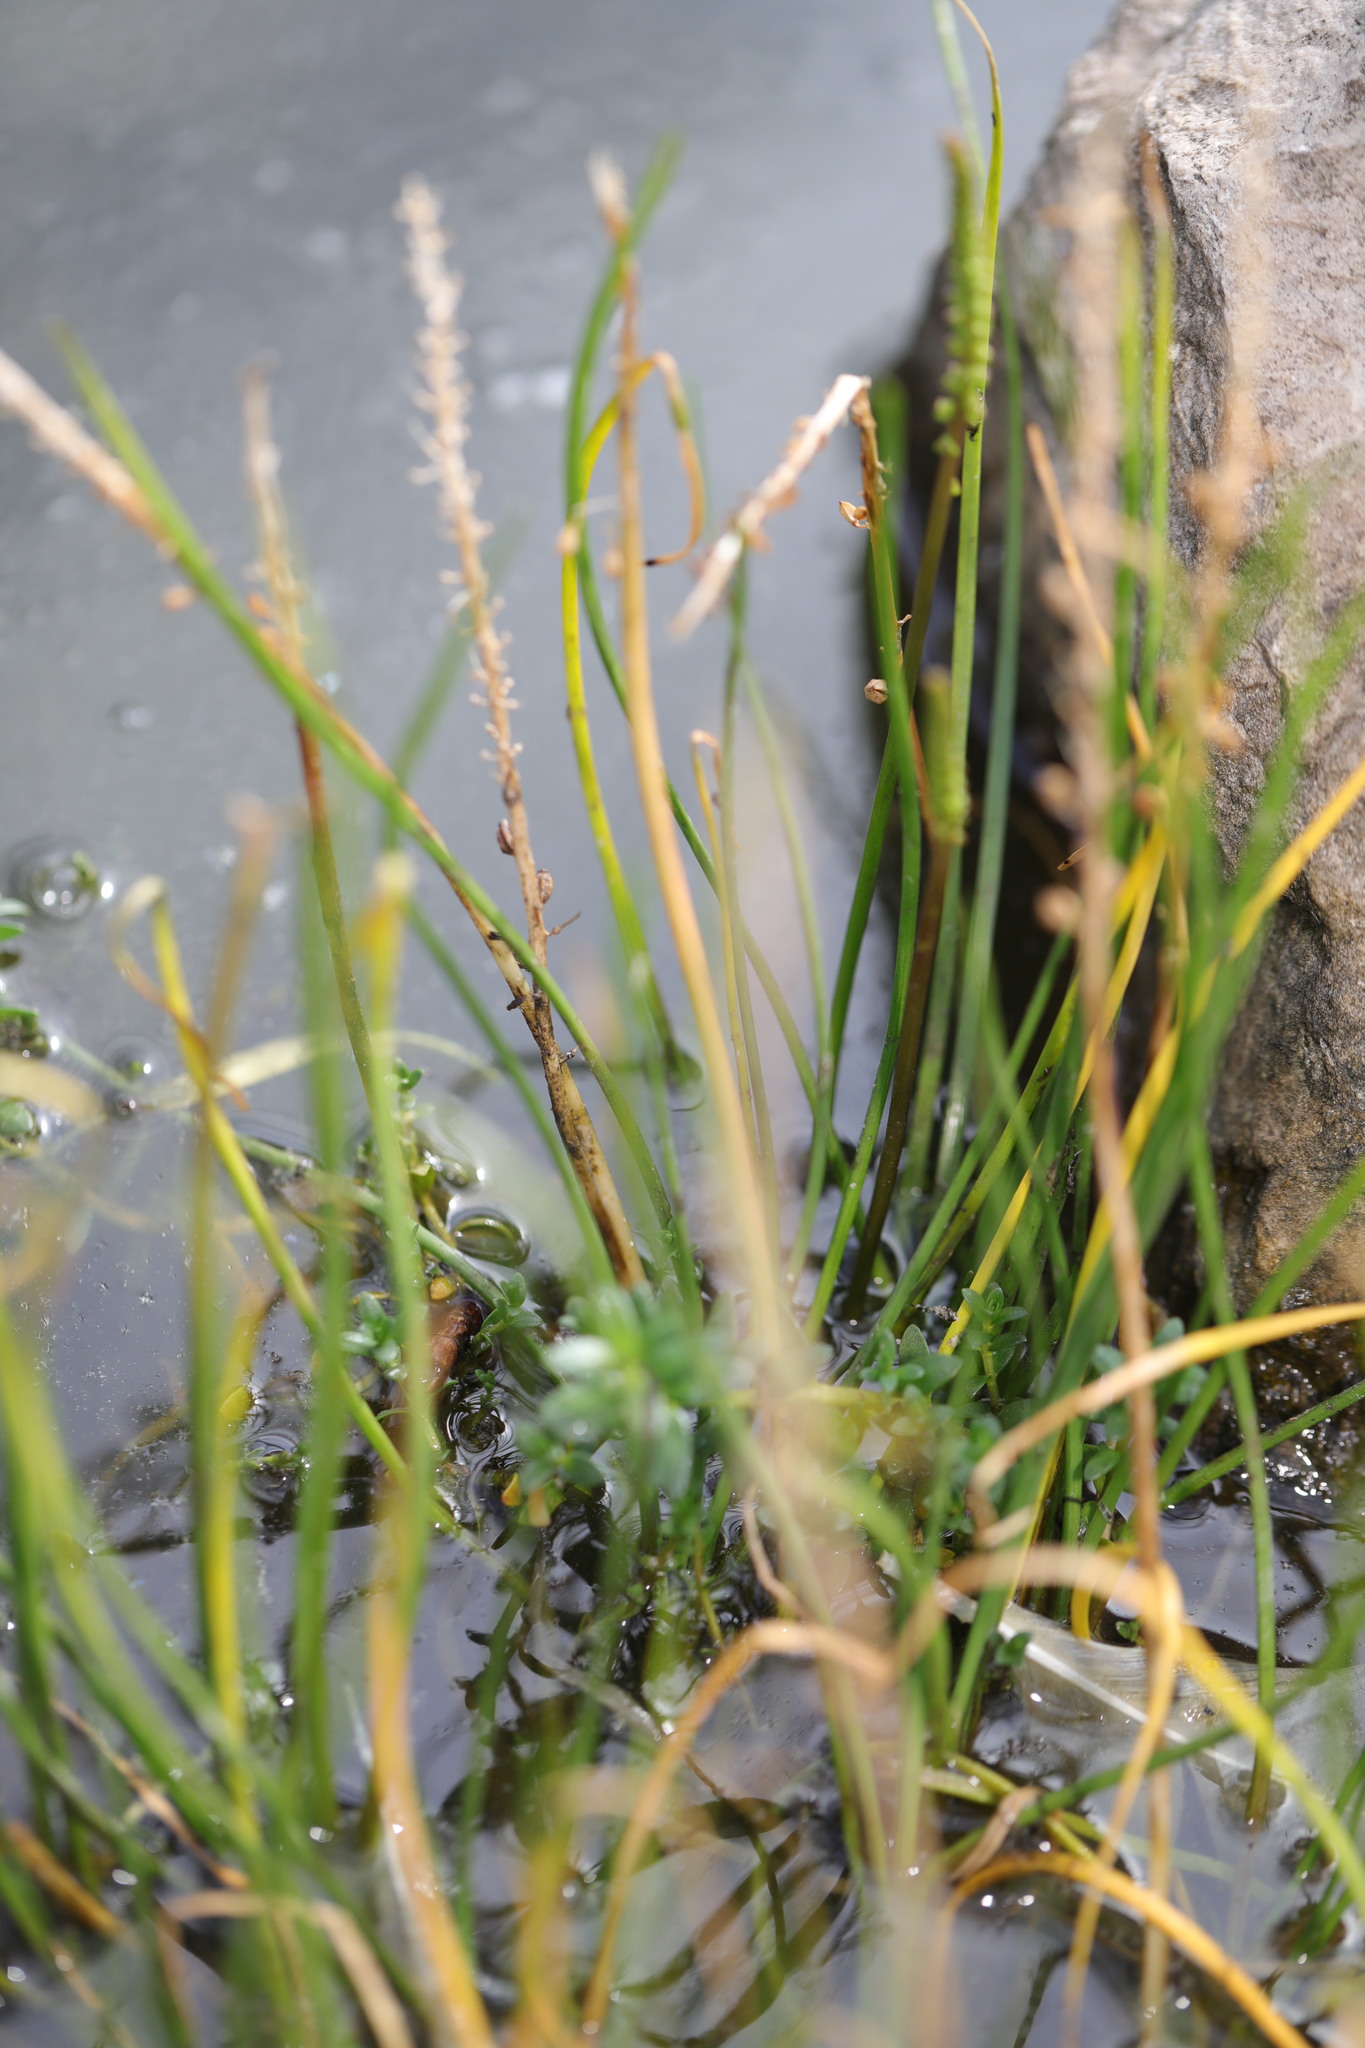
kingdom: Plantae
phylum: Tracheophyta
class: Liliopsida
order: Alismatales
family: Juncaginaceae
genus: Triglochin
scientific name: Triglochin maritima
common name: Sea arrowgrass
